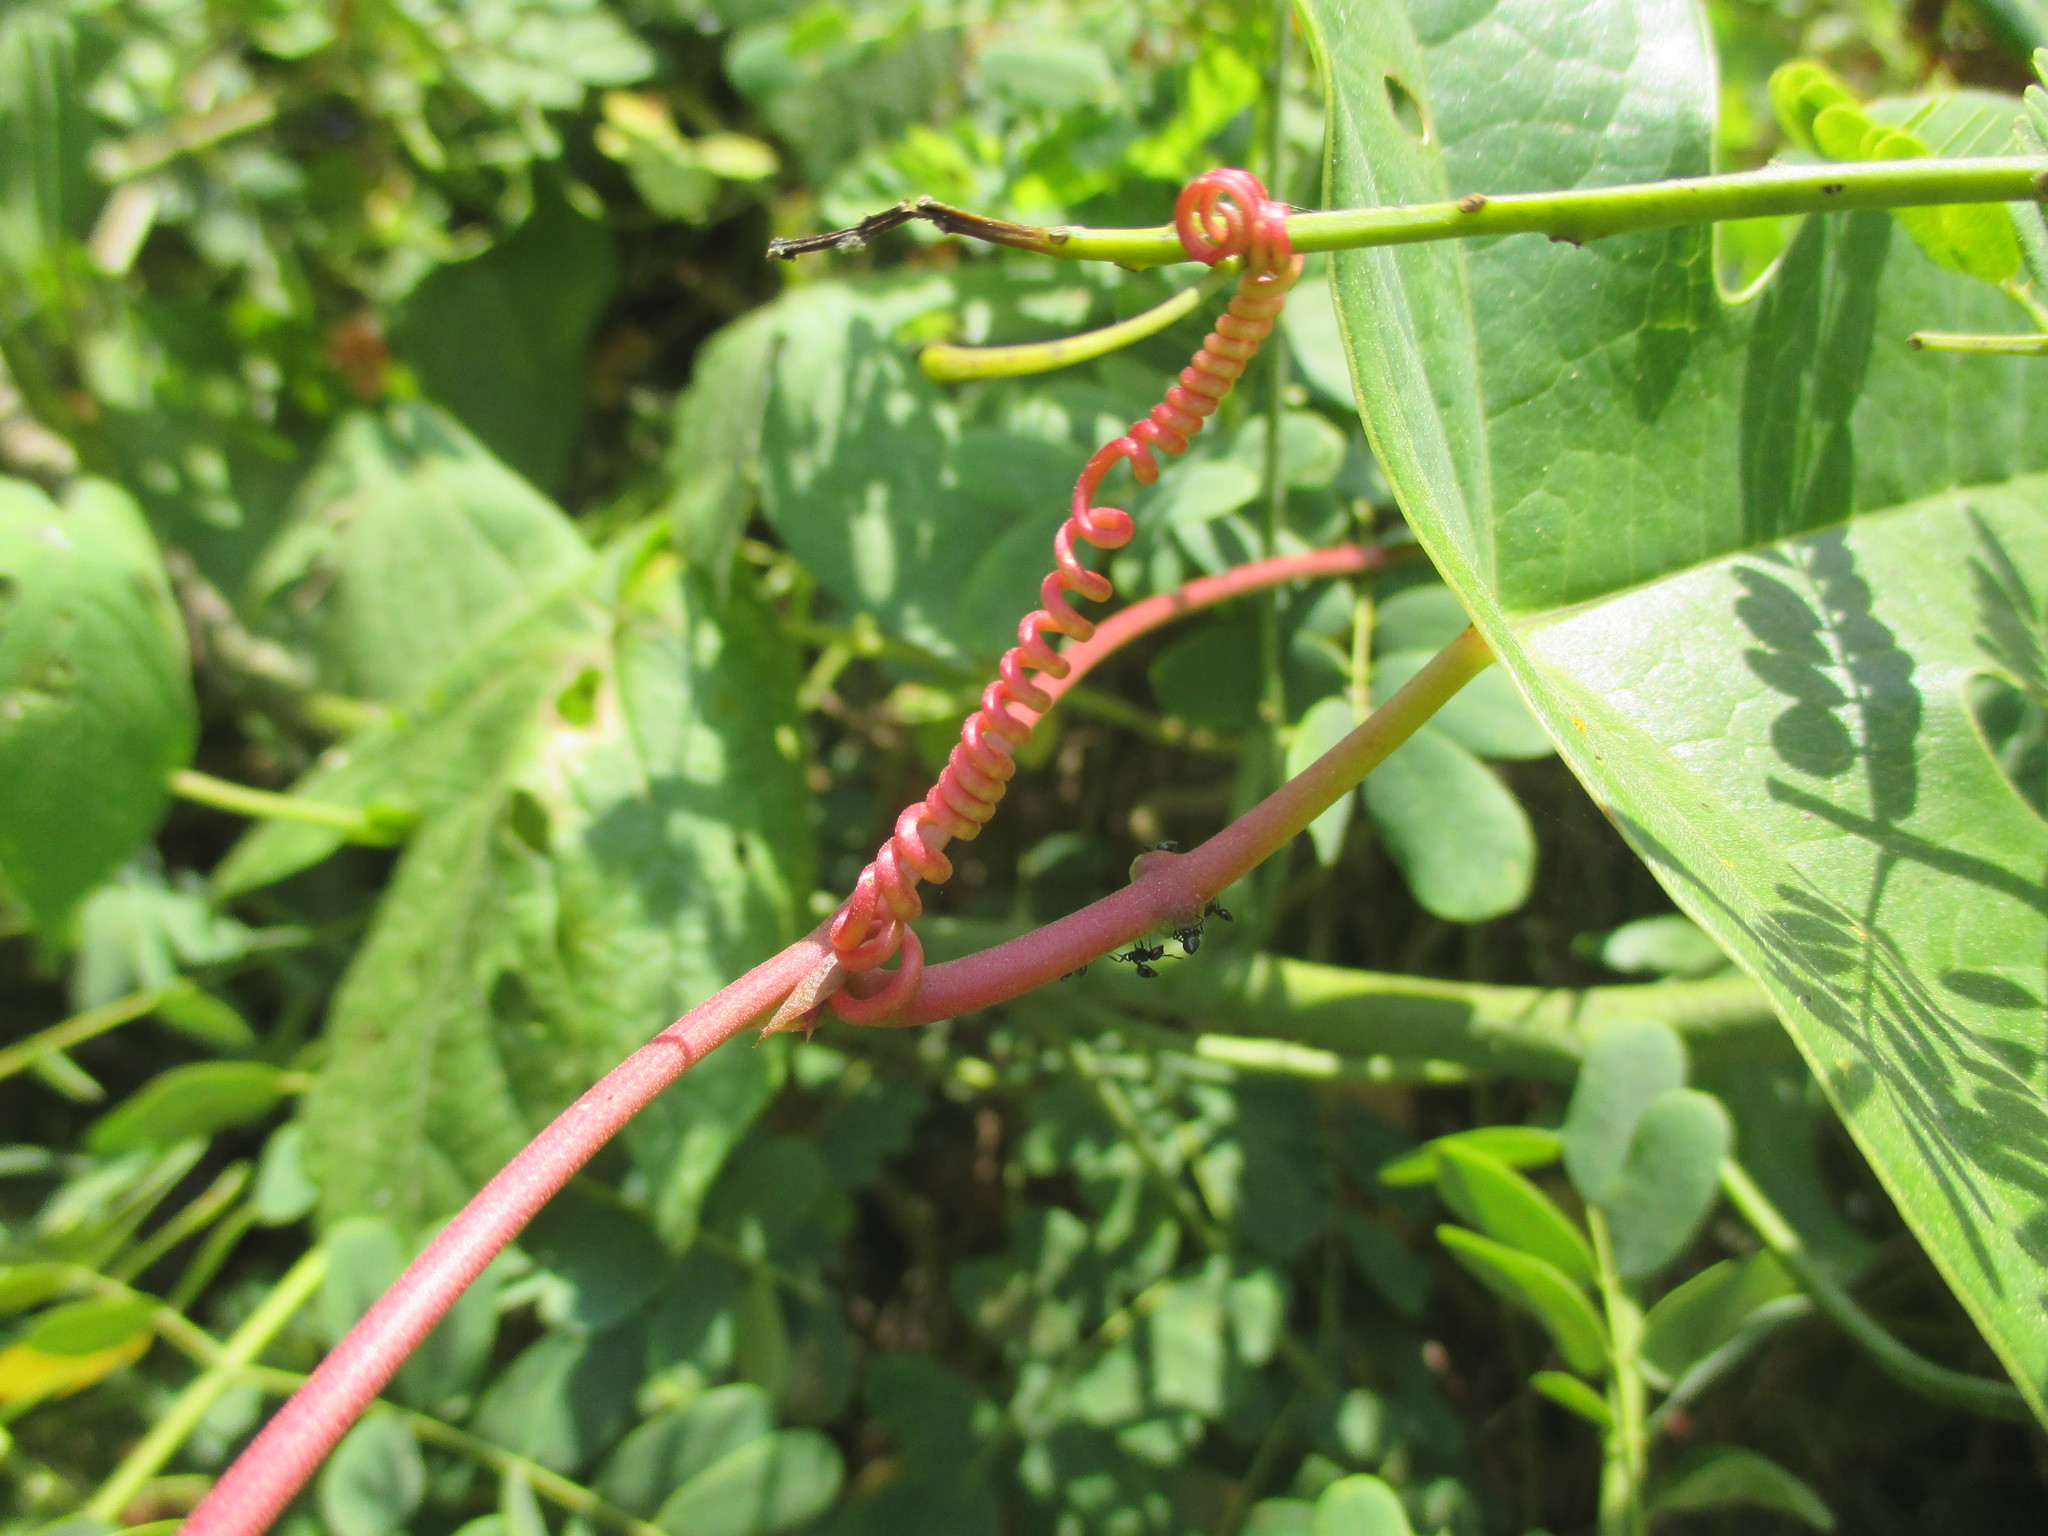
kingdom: Plantae
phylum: Tracheophyta
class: Magnoliopsida
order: Malpighiales
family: Passifloraceae
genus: Passiflora
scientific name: Passiflora viridiflora
